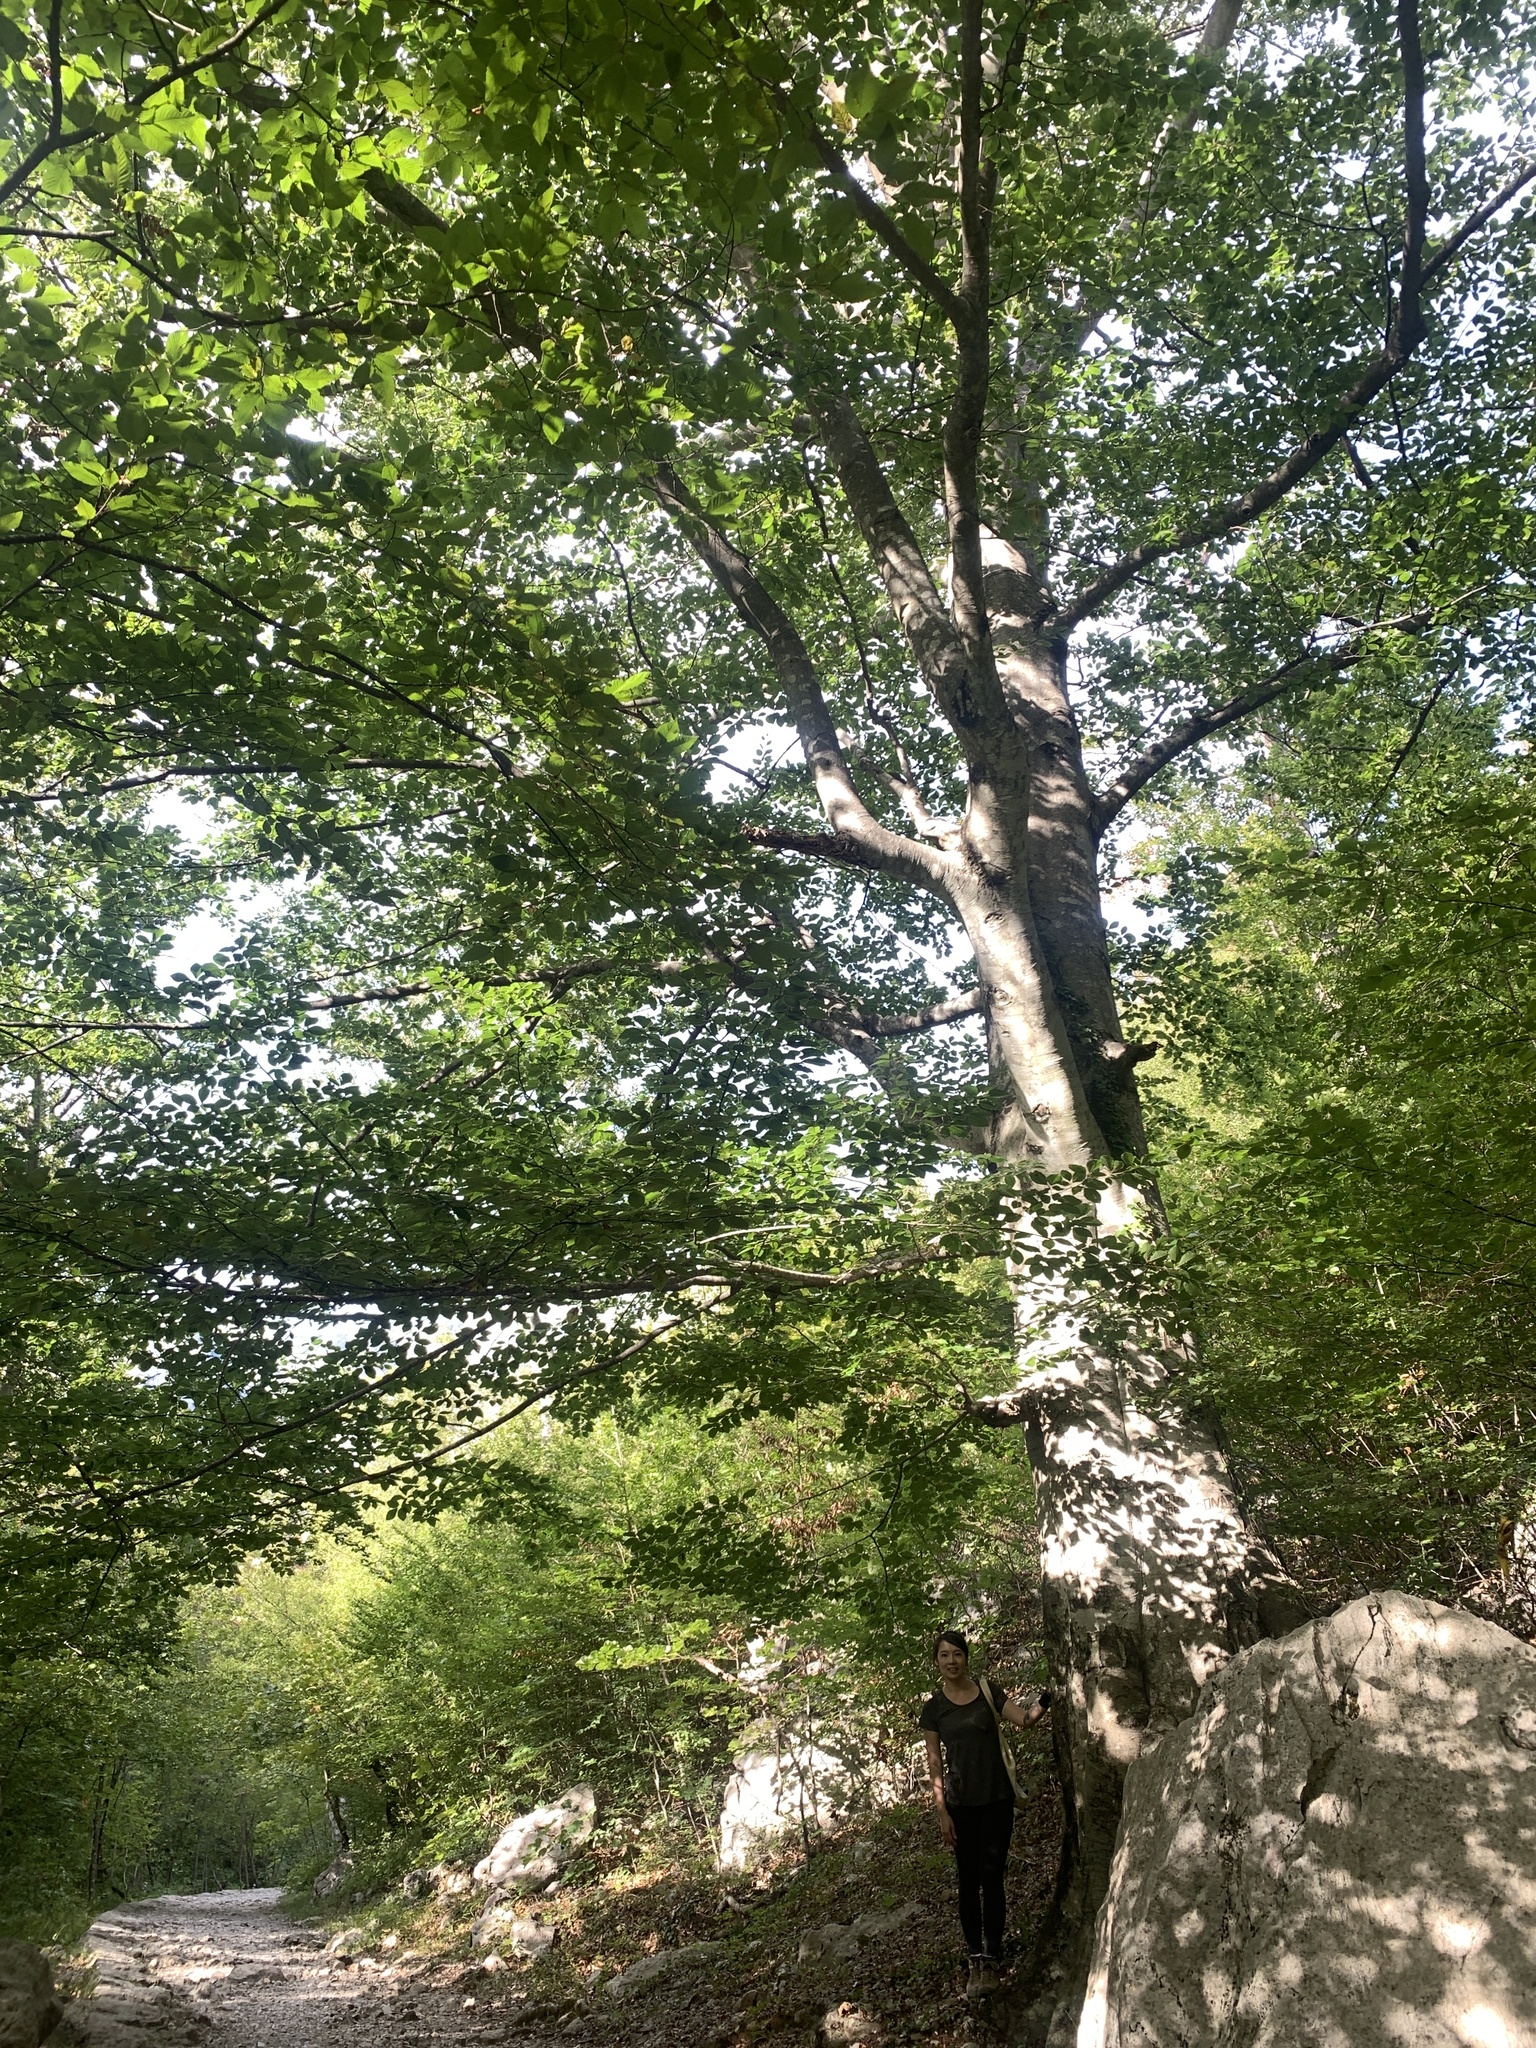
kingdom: Plantae
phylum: Tracheophyta
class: Magnoliopsida
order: Fagales
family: Fagaceae
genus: Fagus
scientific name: Fagus sylvatica
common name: Beech
